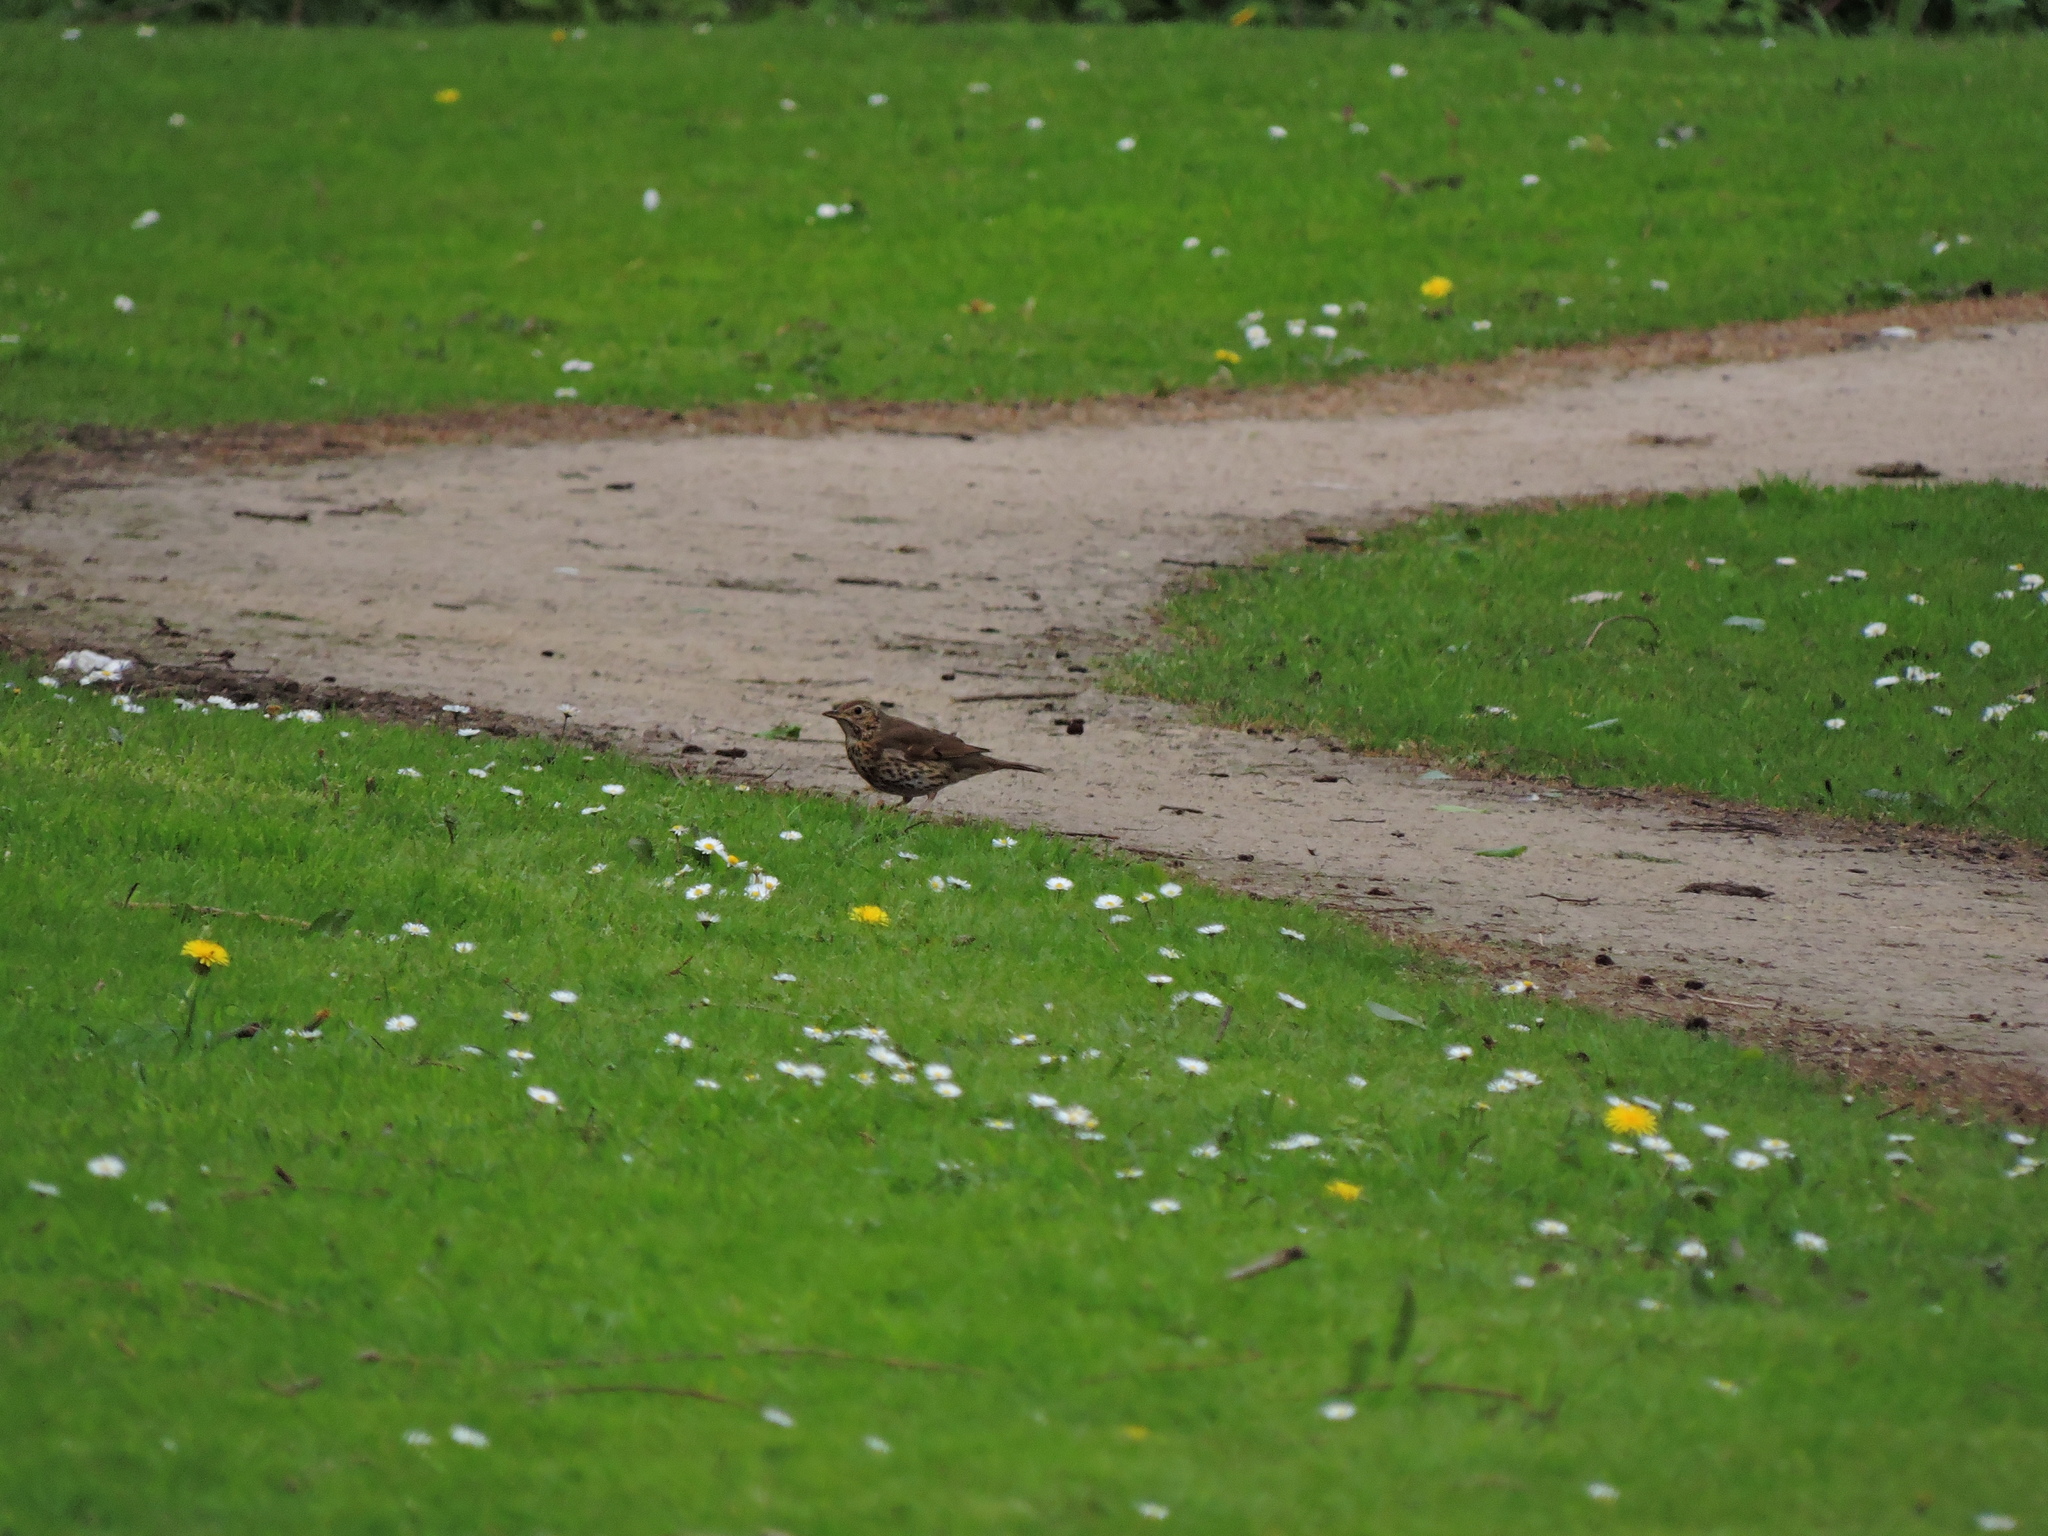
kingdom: Animalia
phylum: Chordata
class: Aves
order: Passeriformes
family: Turdidae
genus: Turdus
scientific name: Turdus philomelos
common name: Song thrush
